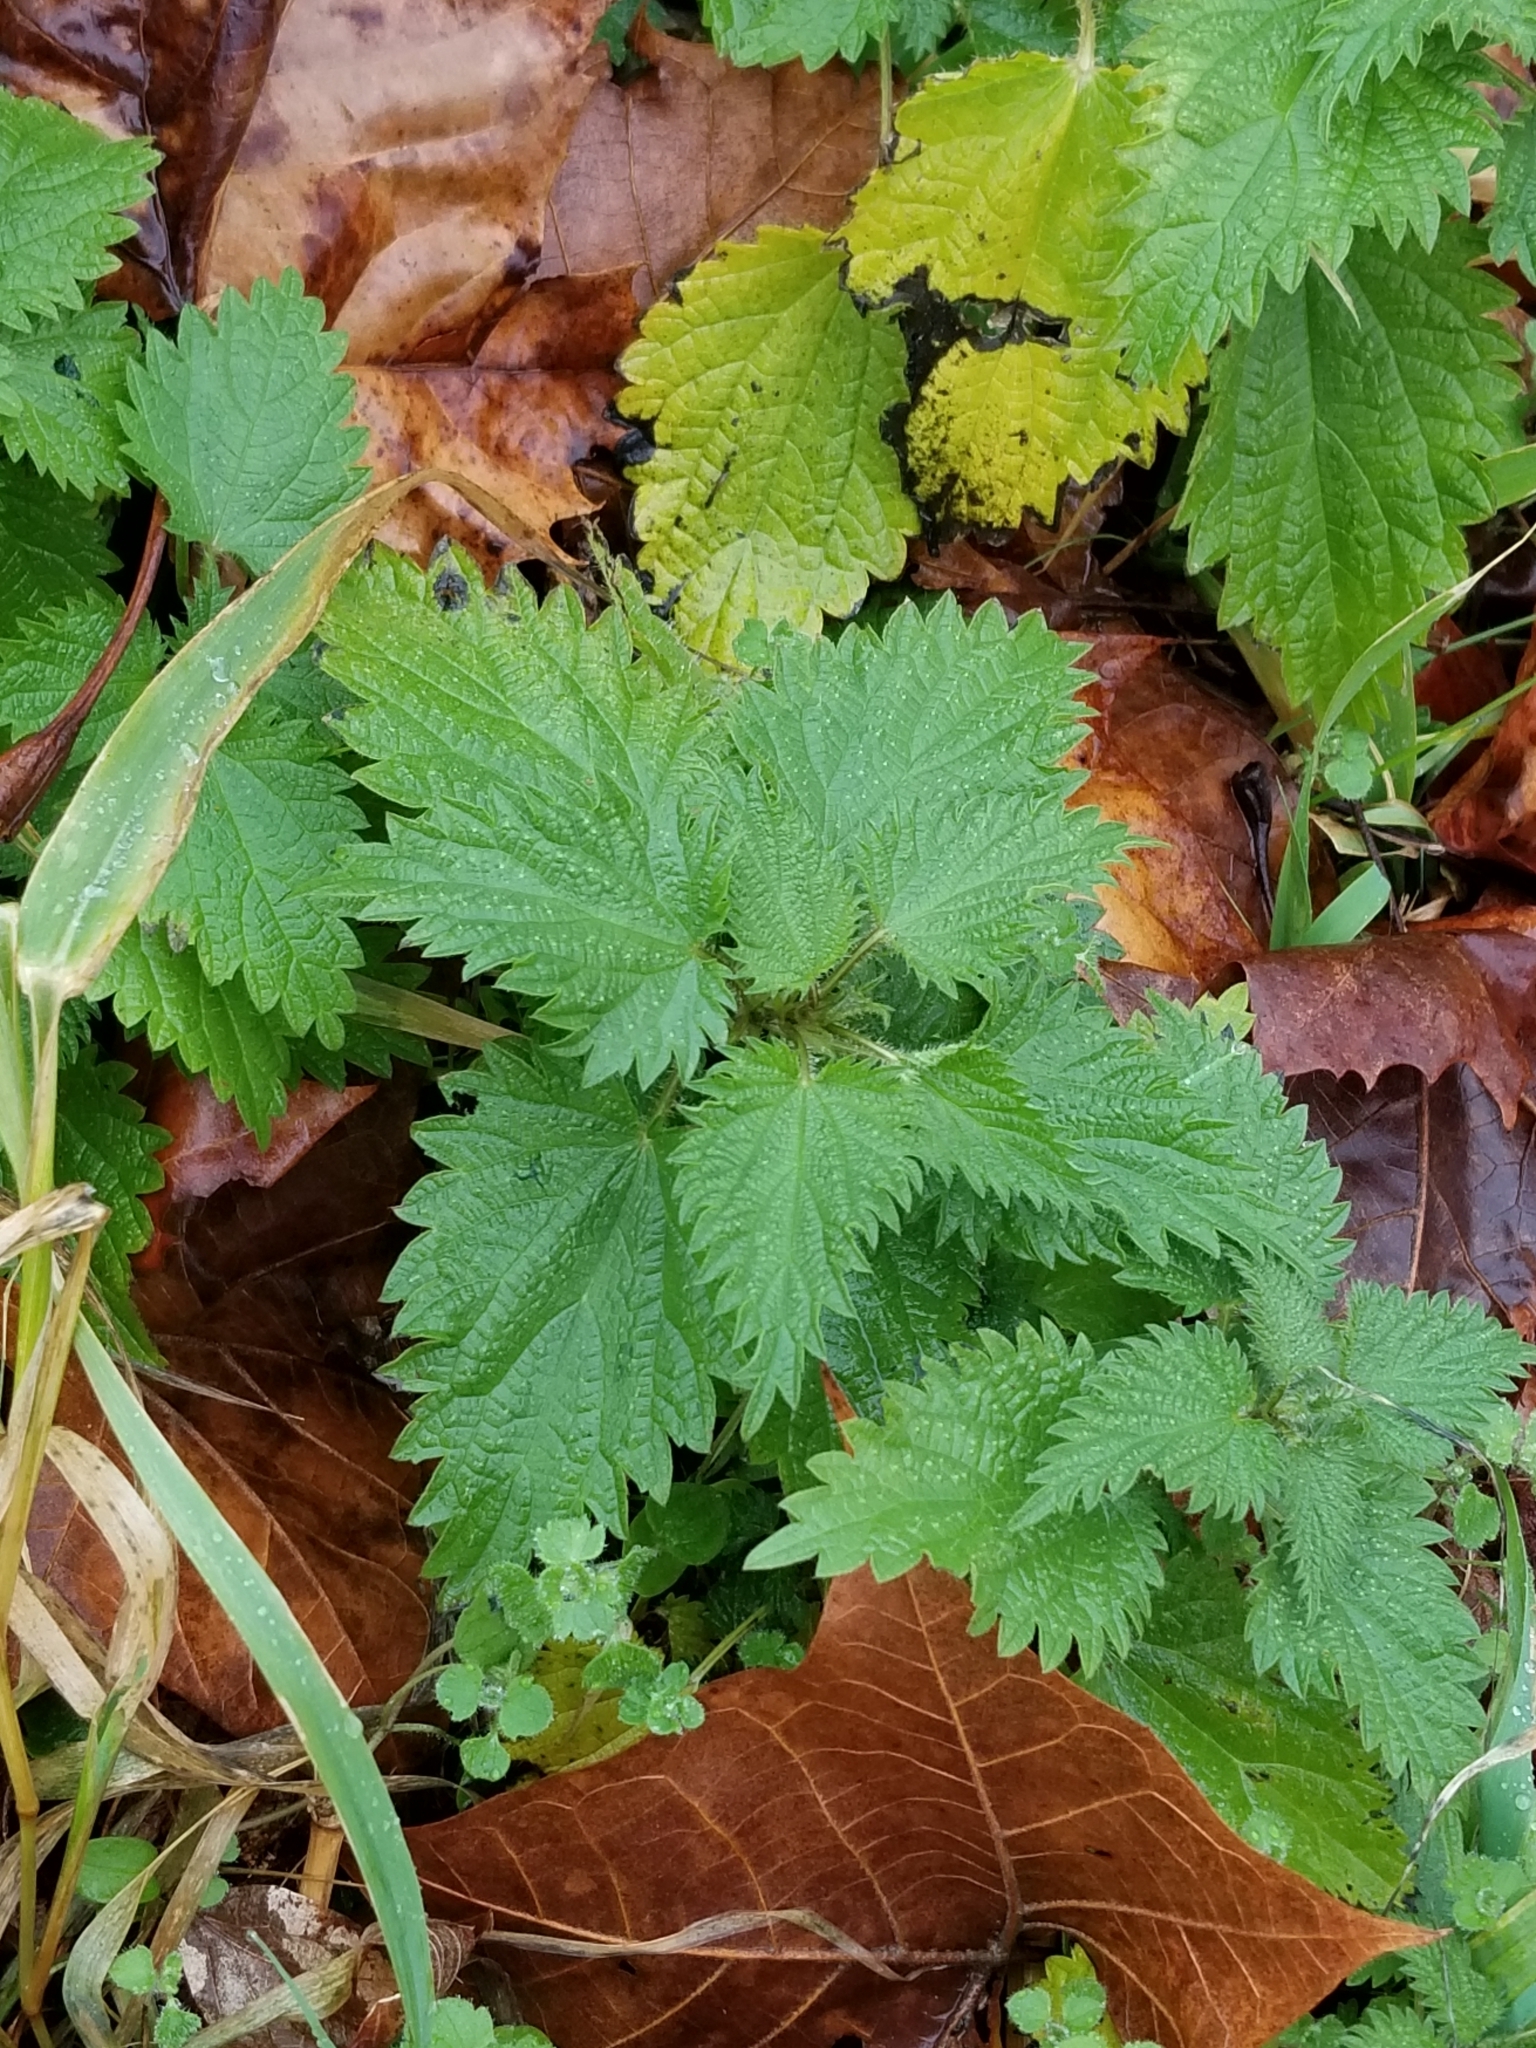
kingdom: Plantae
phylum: Tracheophyta
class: Magnoliopsida
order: Rosales
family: Urticaceae
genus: Urtica
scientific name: Urtica dioica
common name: Common nettle
